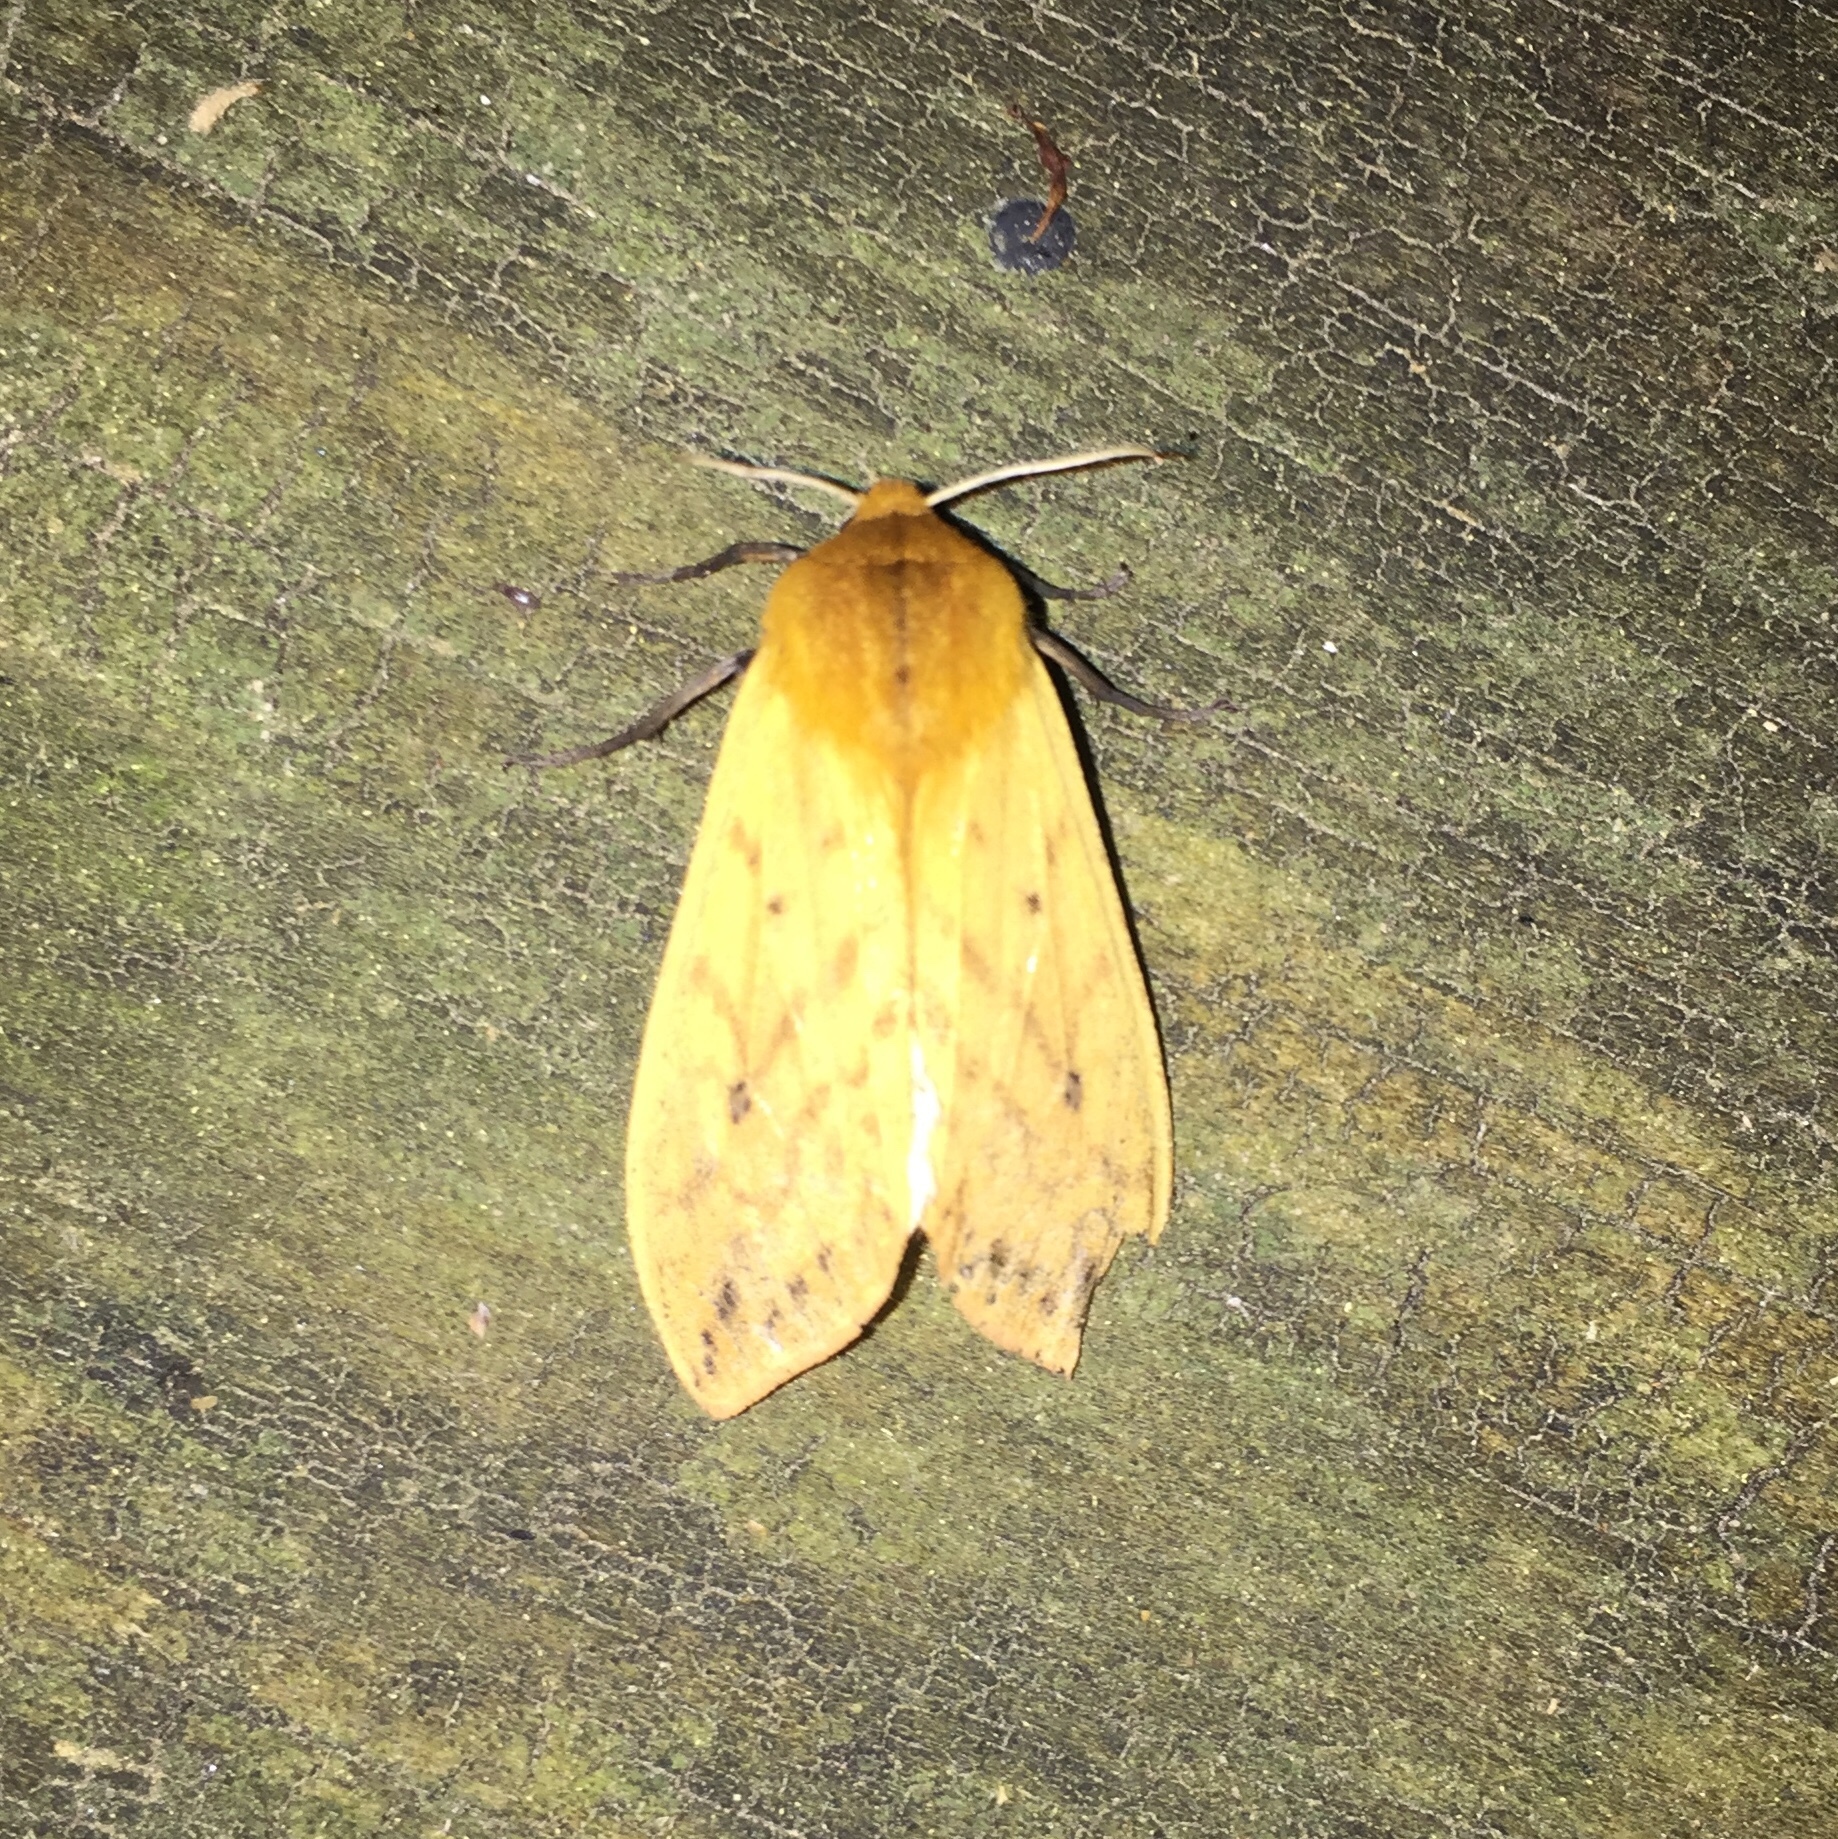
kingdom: Animalia
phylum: Arthropoda
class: Insecta
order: Lepidoptera
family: Erebidae
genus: Pyrrharctia
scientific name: Pyrrharctia isabella
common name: Isabella tiger moth
